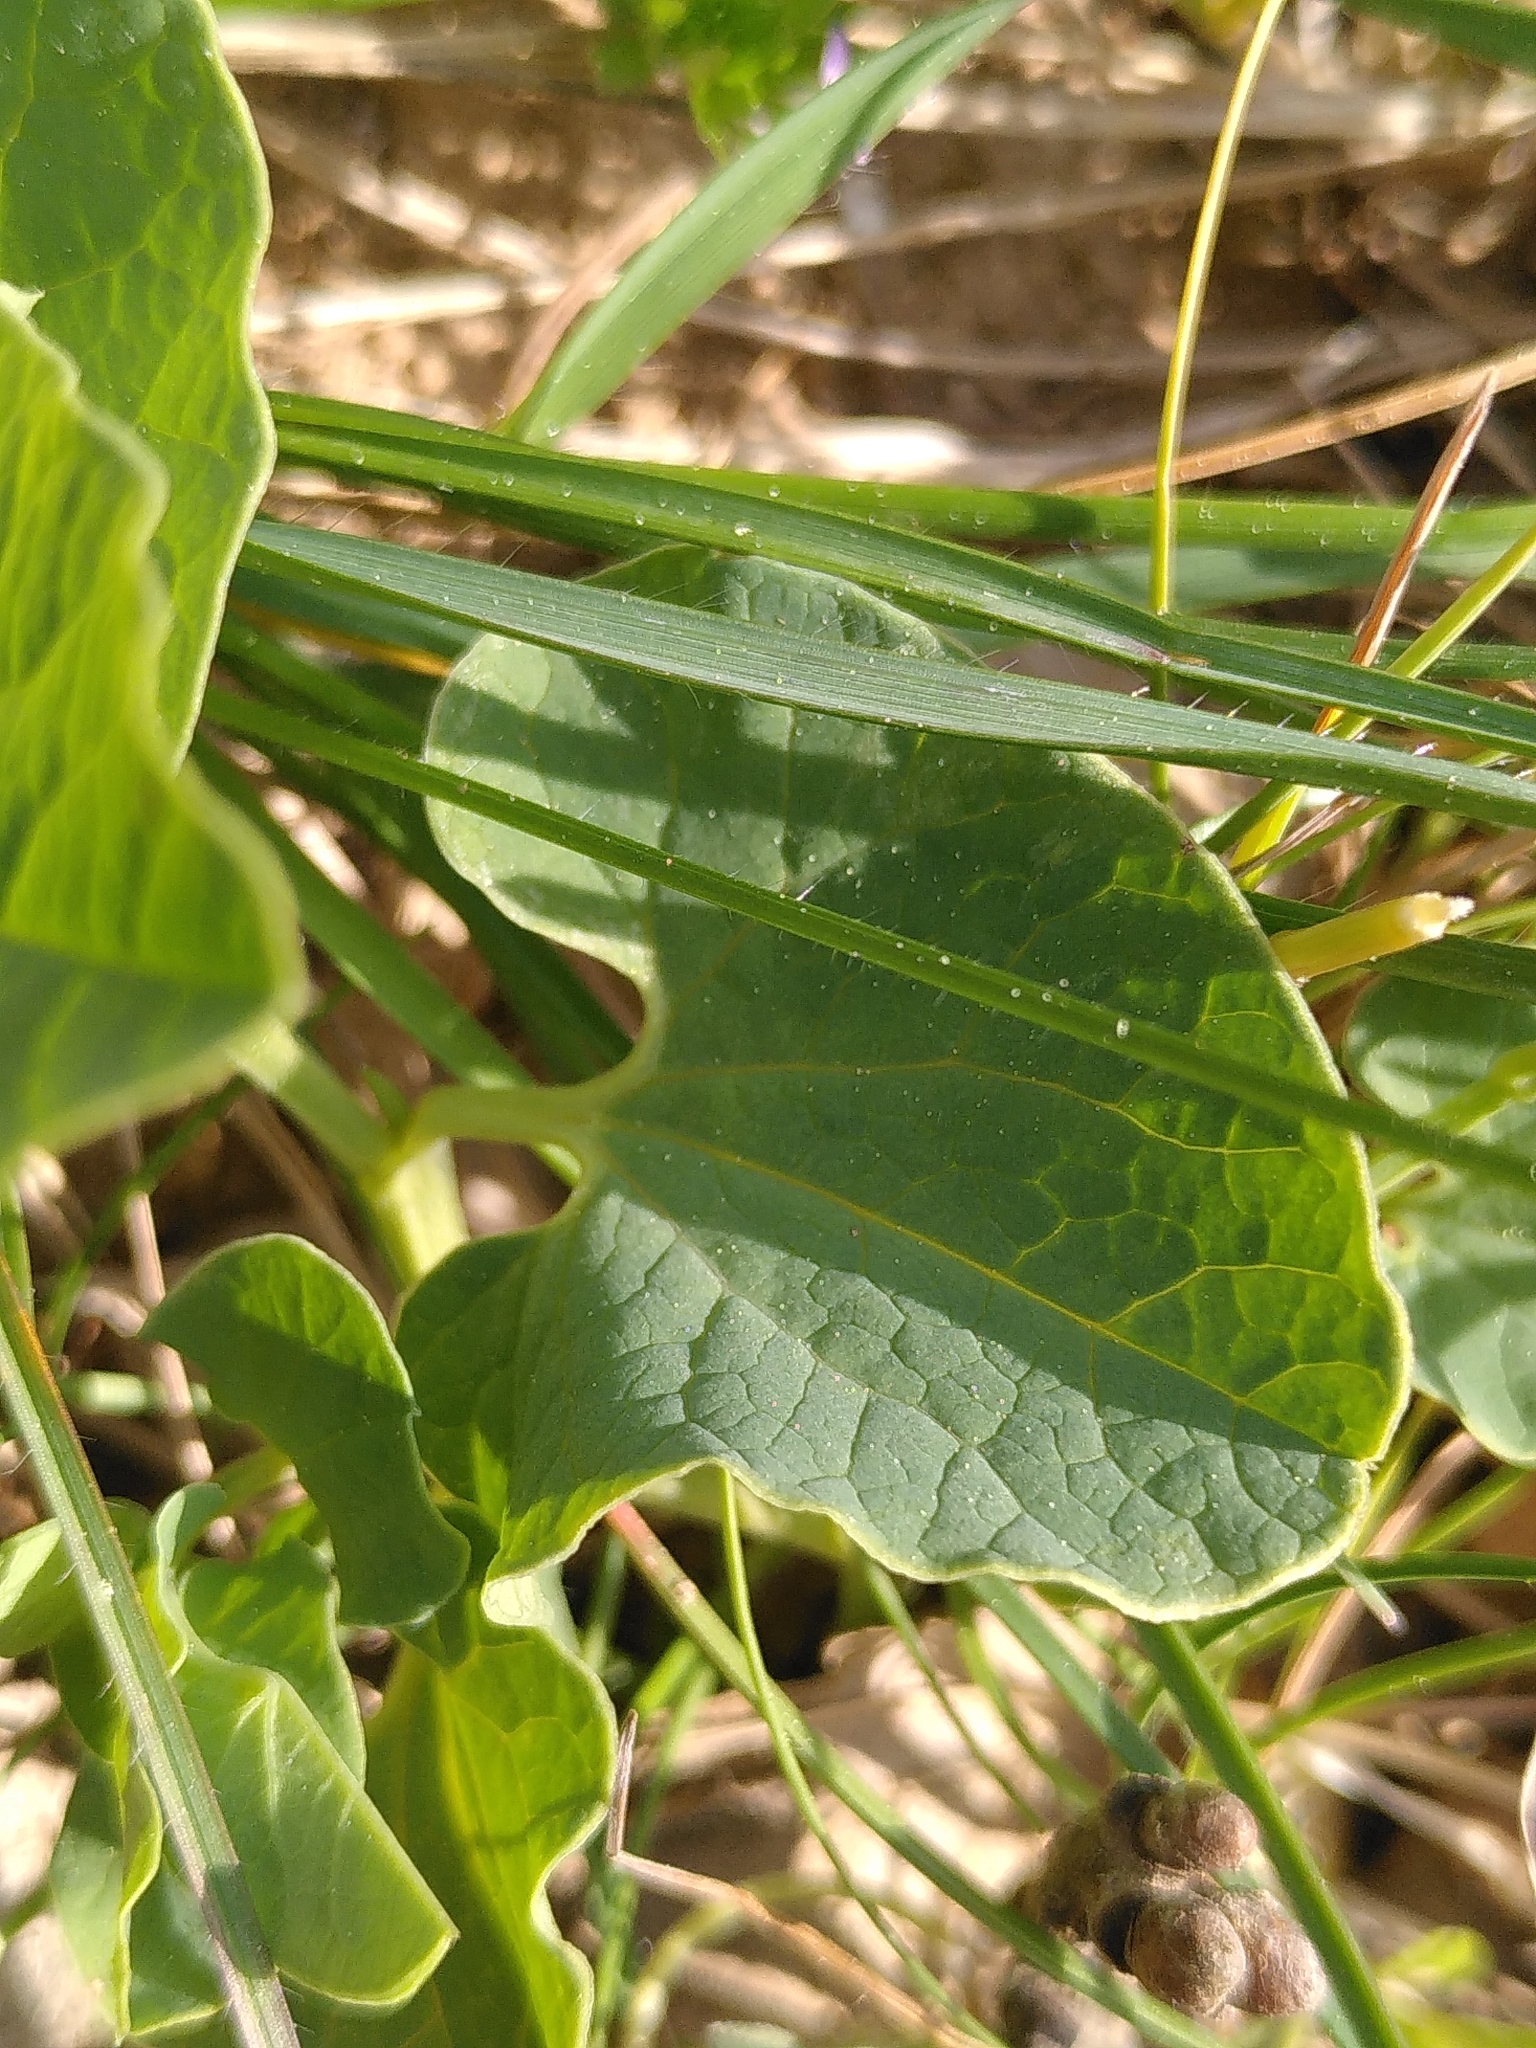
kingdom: Plantae
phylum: Tracheophyta
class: Magnoliopsida
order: Piperales
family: Aristolochiaceae
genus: Aristolochia
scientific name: Aristolochia paucinervis
